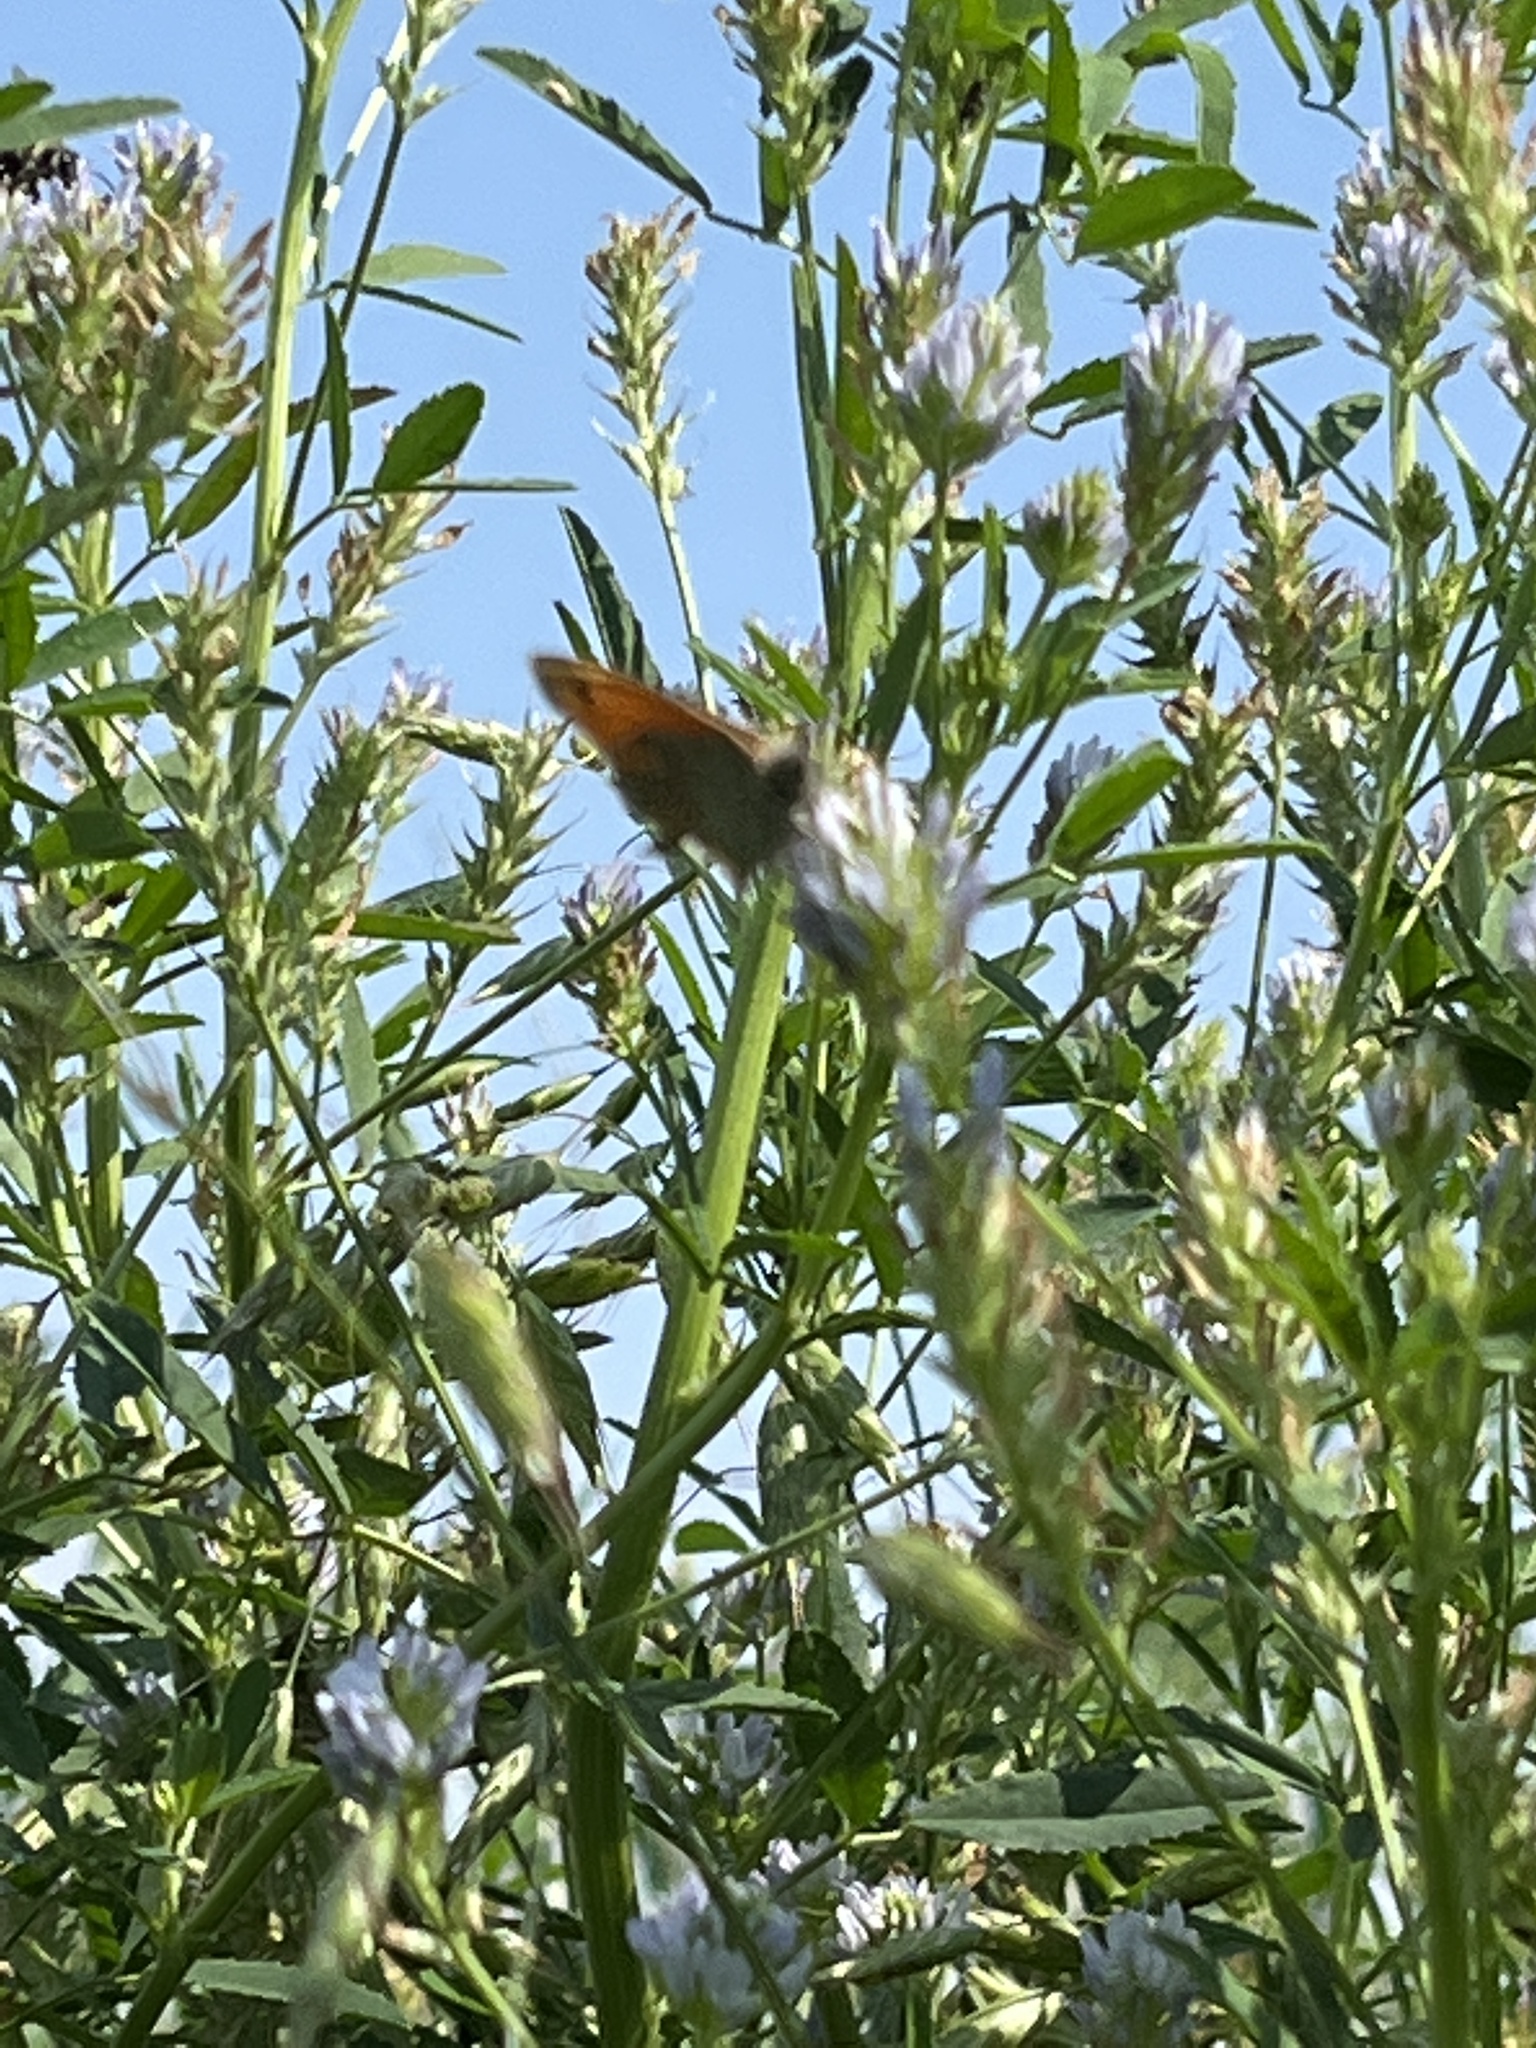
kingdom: Animalia
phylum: Arthropoda
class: Insecta
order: Lepidoptera
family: Nymphalidae
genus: Coenonympha
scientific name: Coenonympha pamphilus
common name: Small heath
